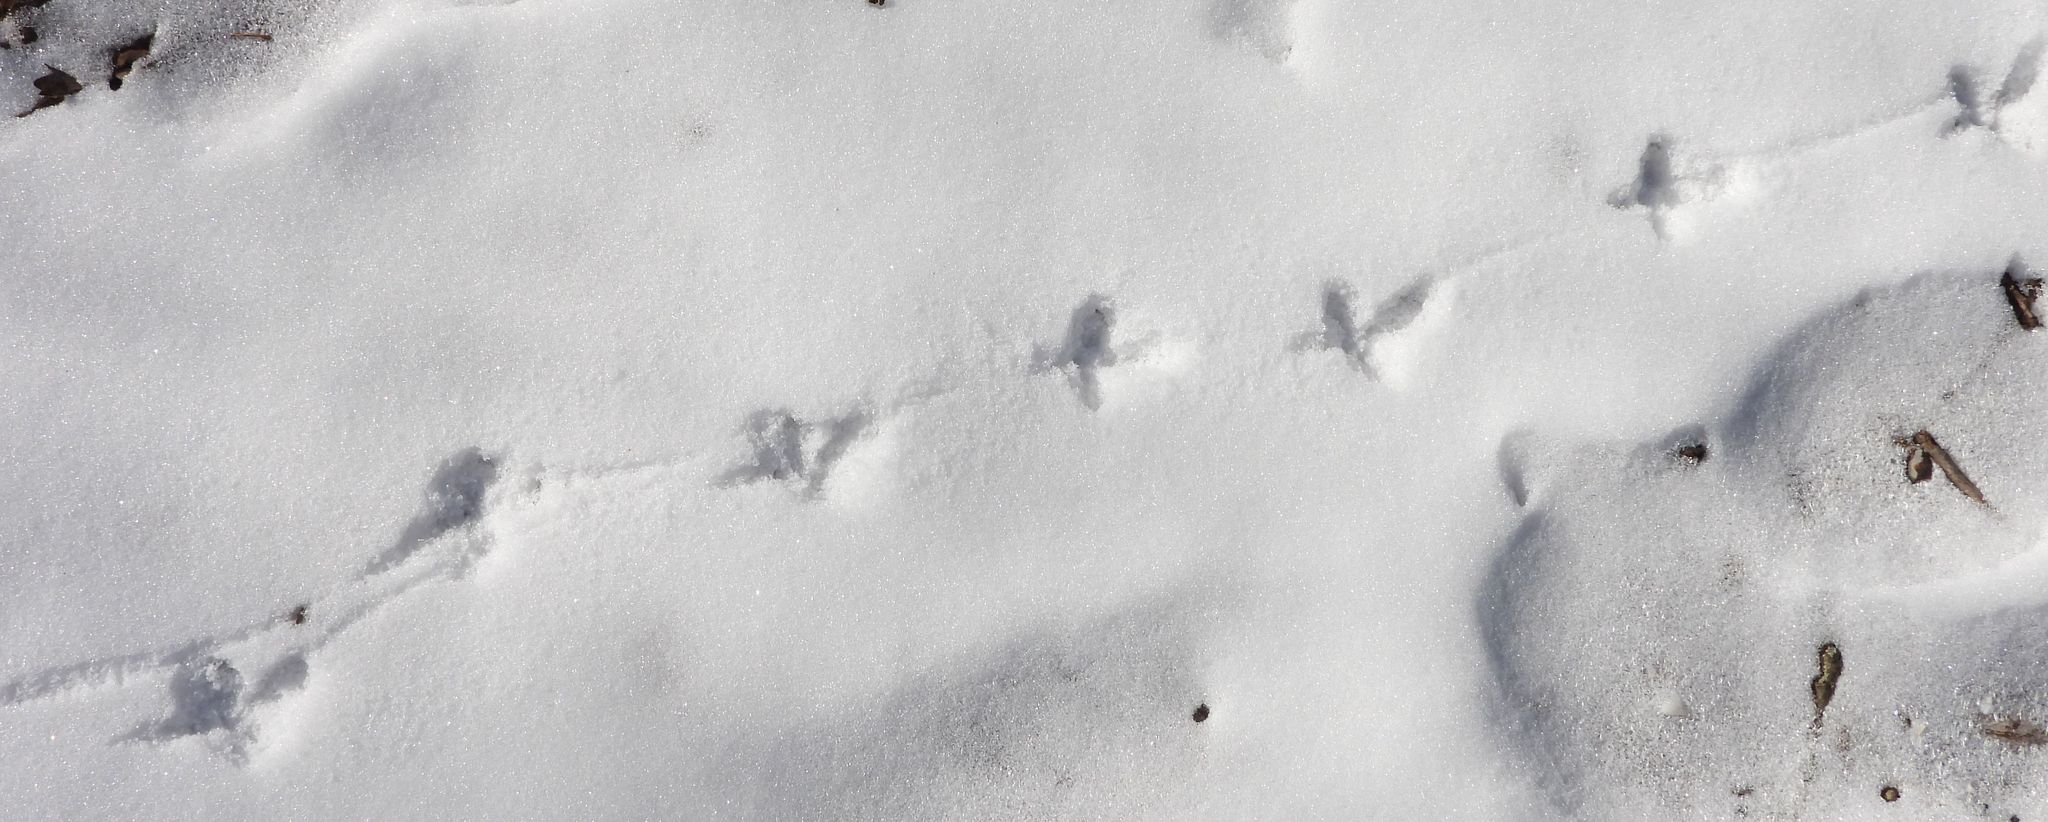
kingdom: Animalia
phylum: Chordata
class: Aves
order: Galliformes
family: Phasianidae
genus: Bonasa
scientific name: Bonasa umbellus
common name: Ruffed grouse
